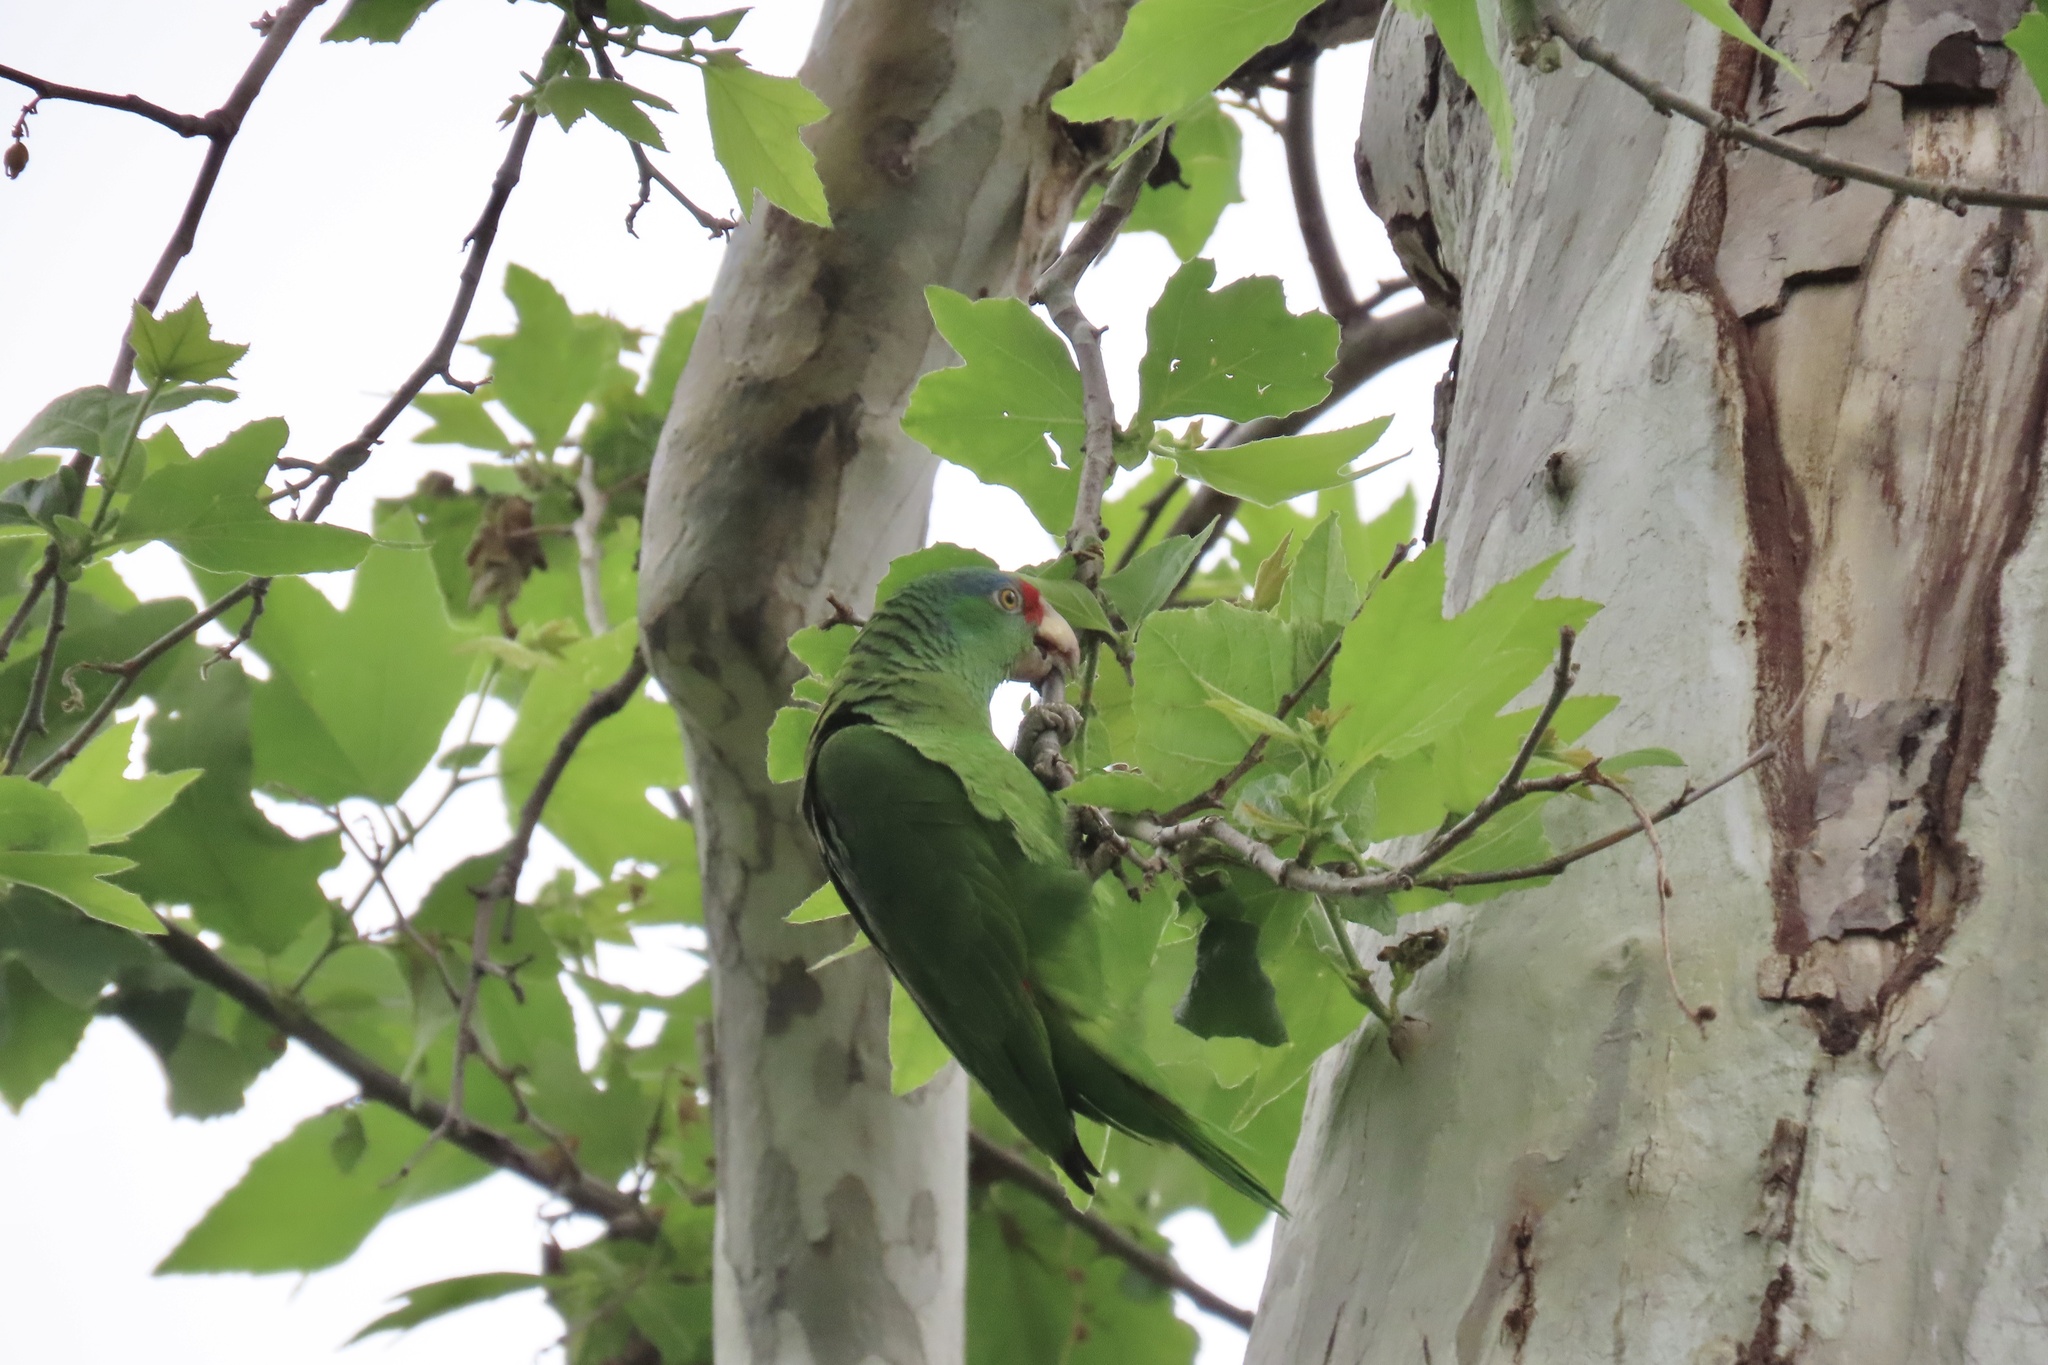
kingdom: Animalia
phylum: Chordata
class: Aves
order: Psittaciformes
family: Psittacidae
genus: Amazona
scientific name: Amazona viridigenalis
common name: Red-crowned amazon
